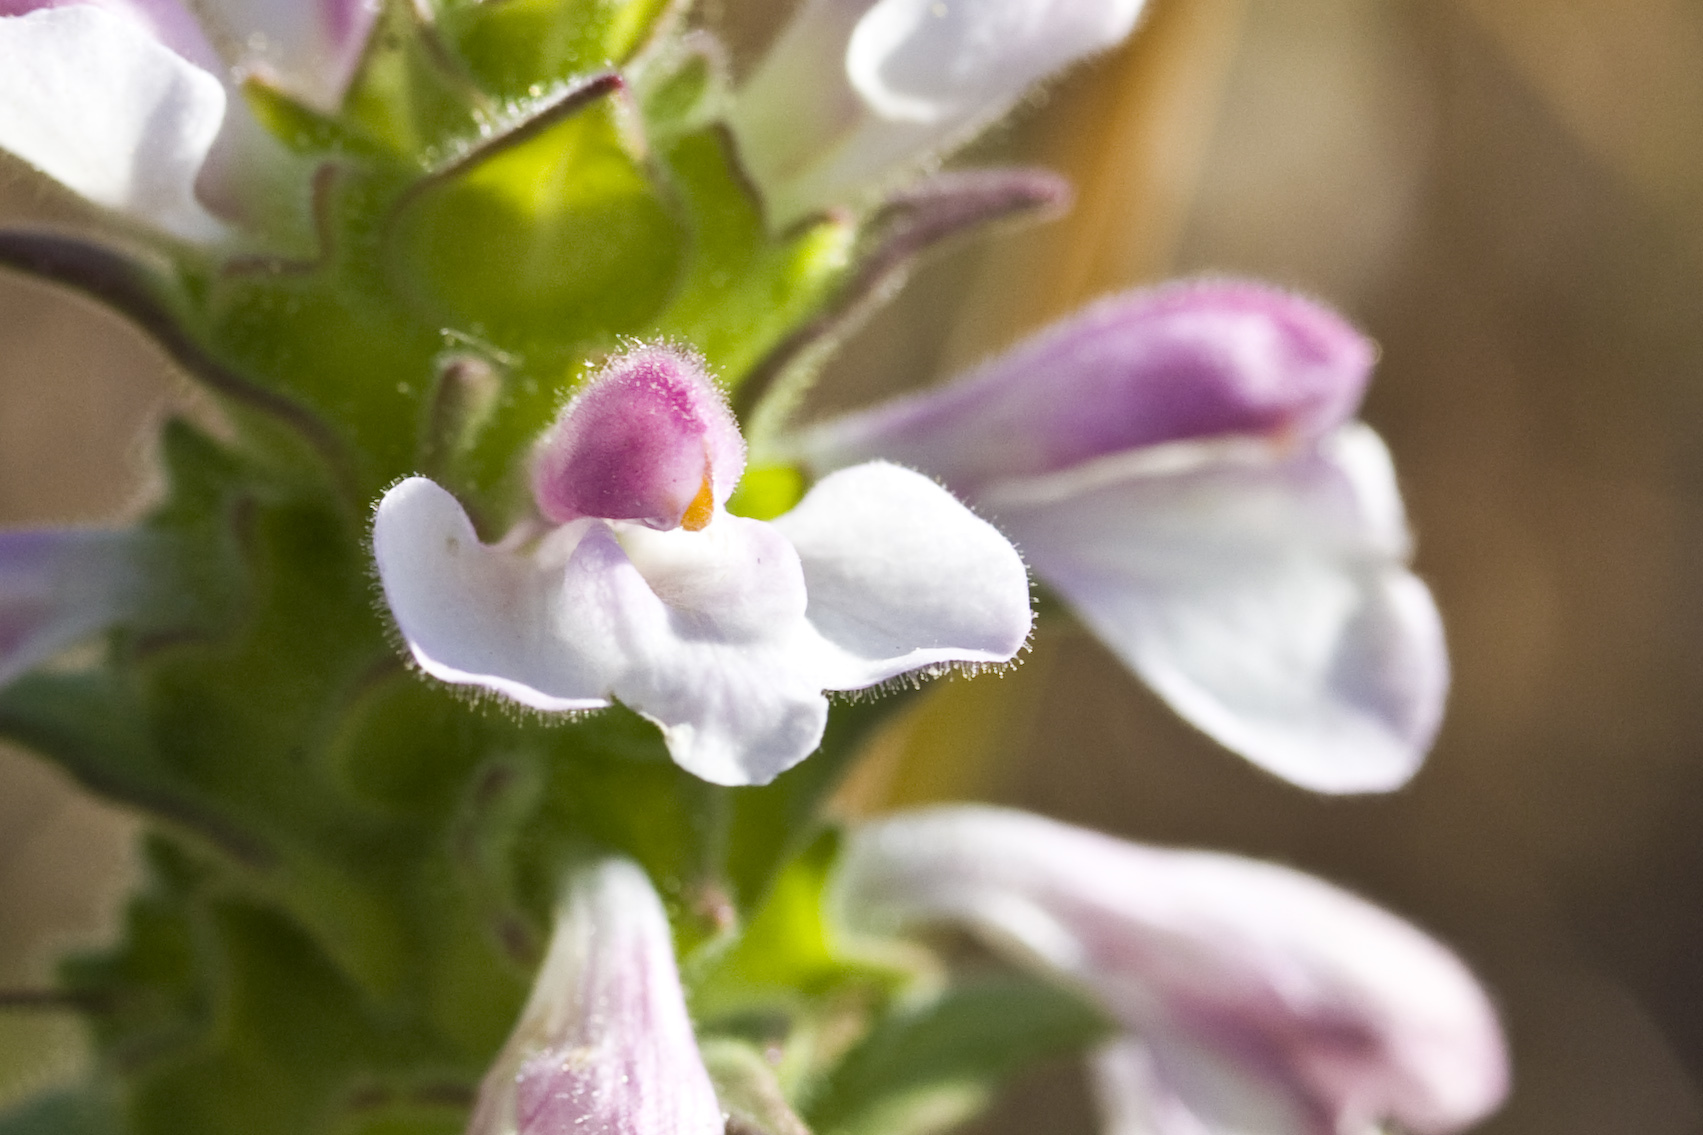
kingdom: Plantae
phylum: Tracheophyta
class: Magnoliopsida
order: Lamiales
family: Orobanchaceae
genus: Bellardia
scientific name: Bellardia trixago
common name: Mediterranean lineseed
